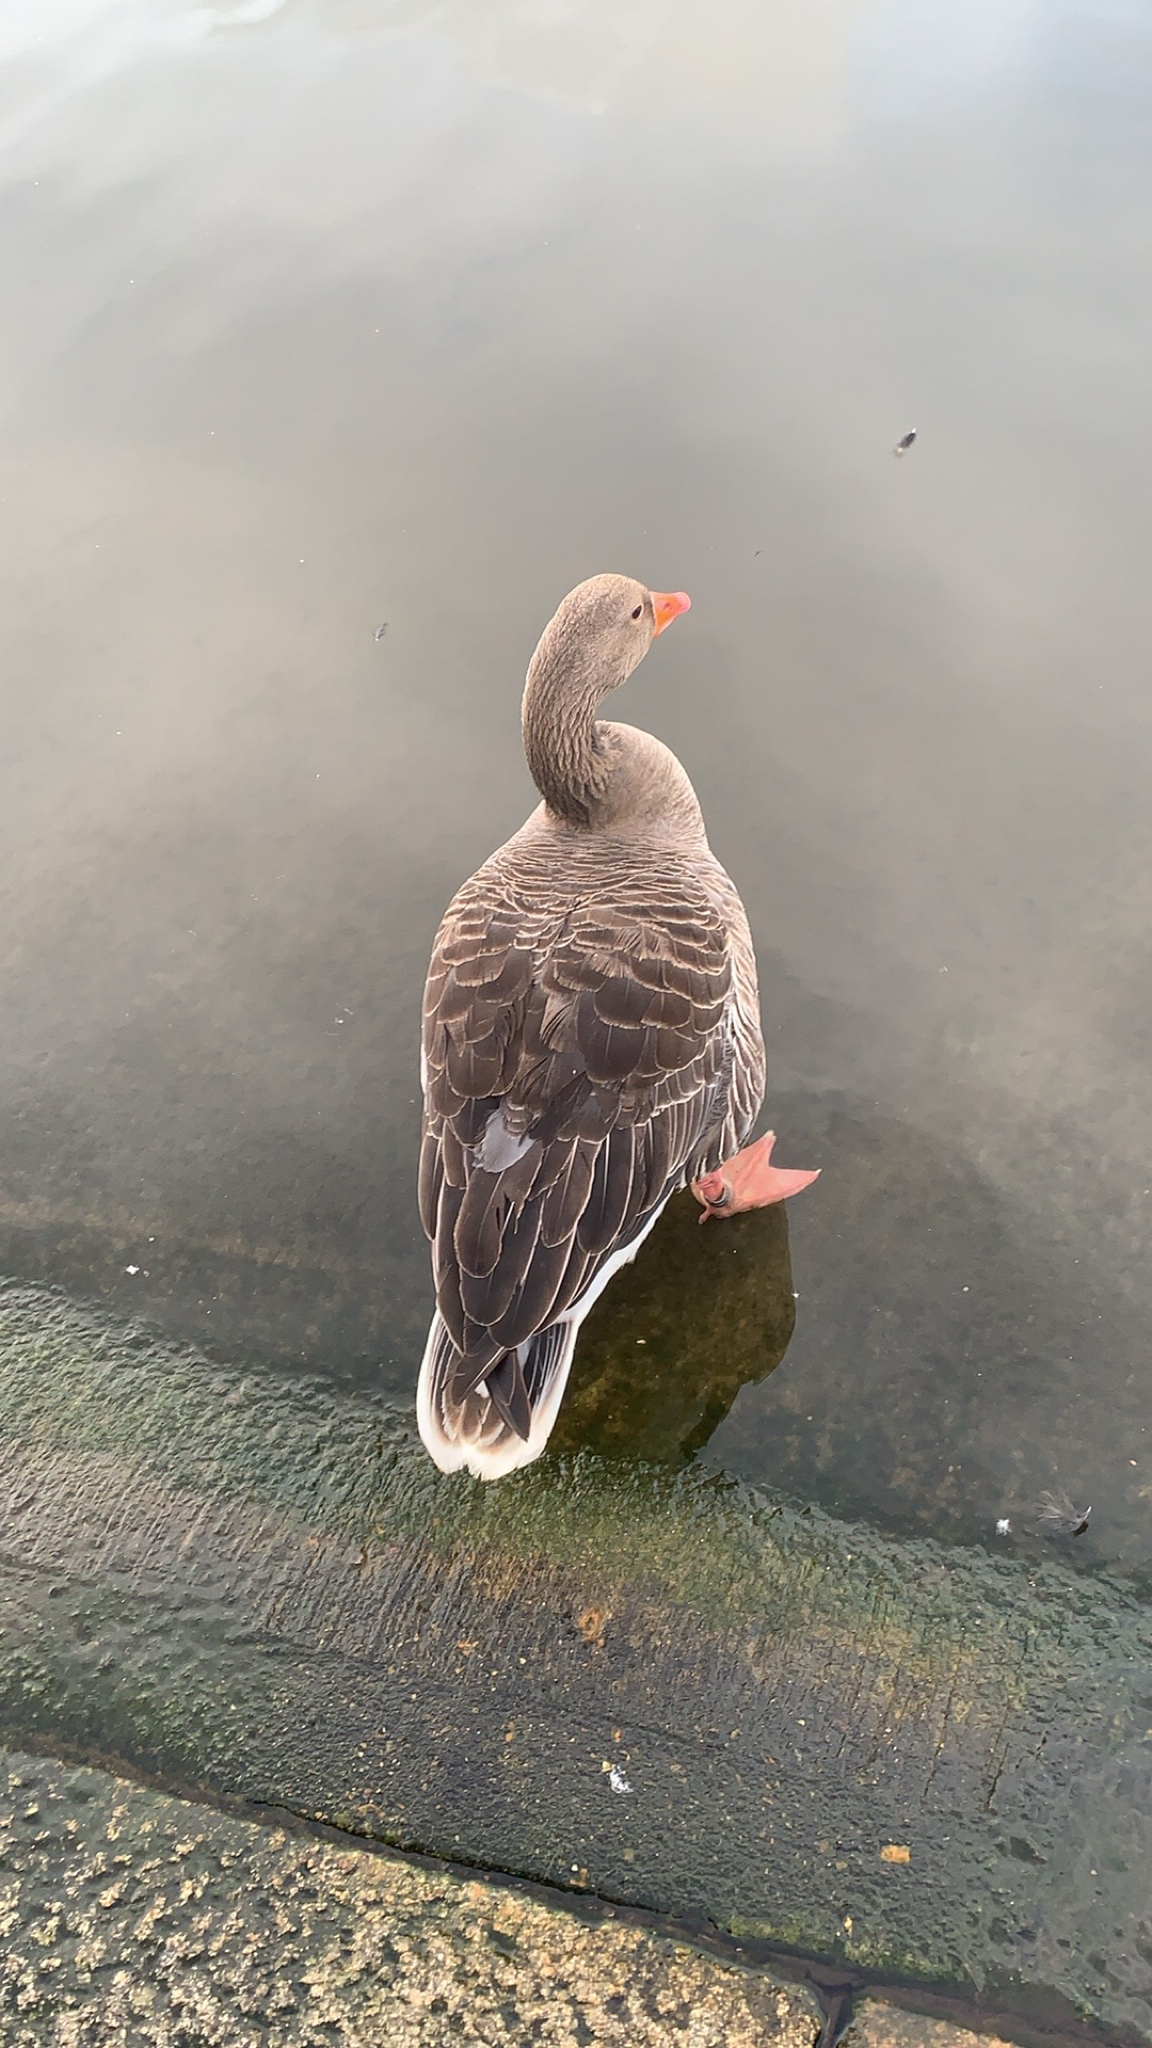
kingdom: Animalia
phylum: Chordata
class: Aves
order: Anseriformes
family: Anatidae
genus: Anser
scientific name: Anser anser
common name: Greylag goose
